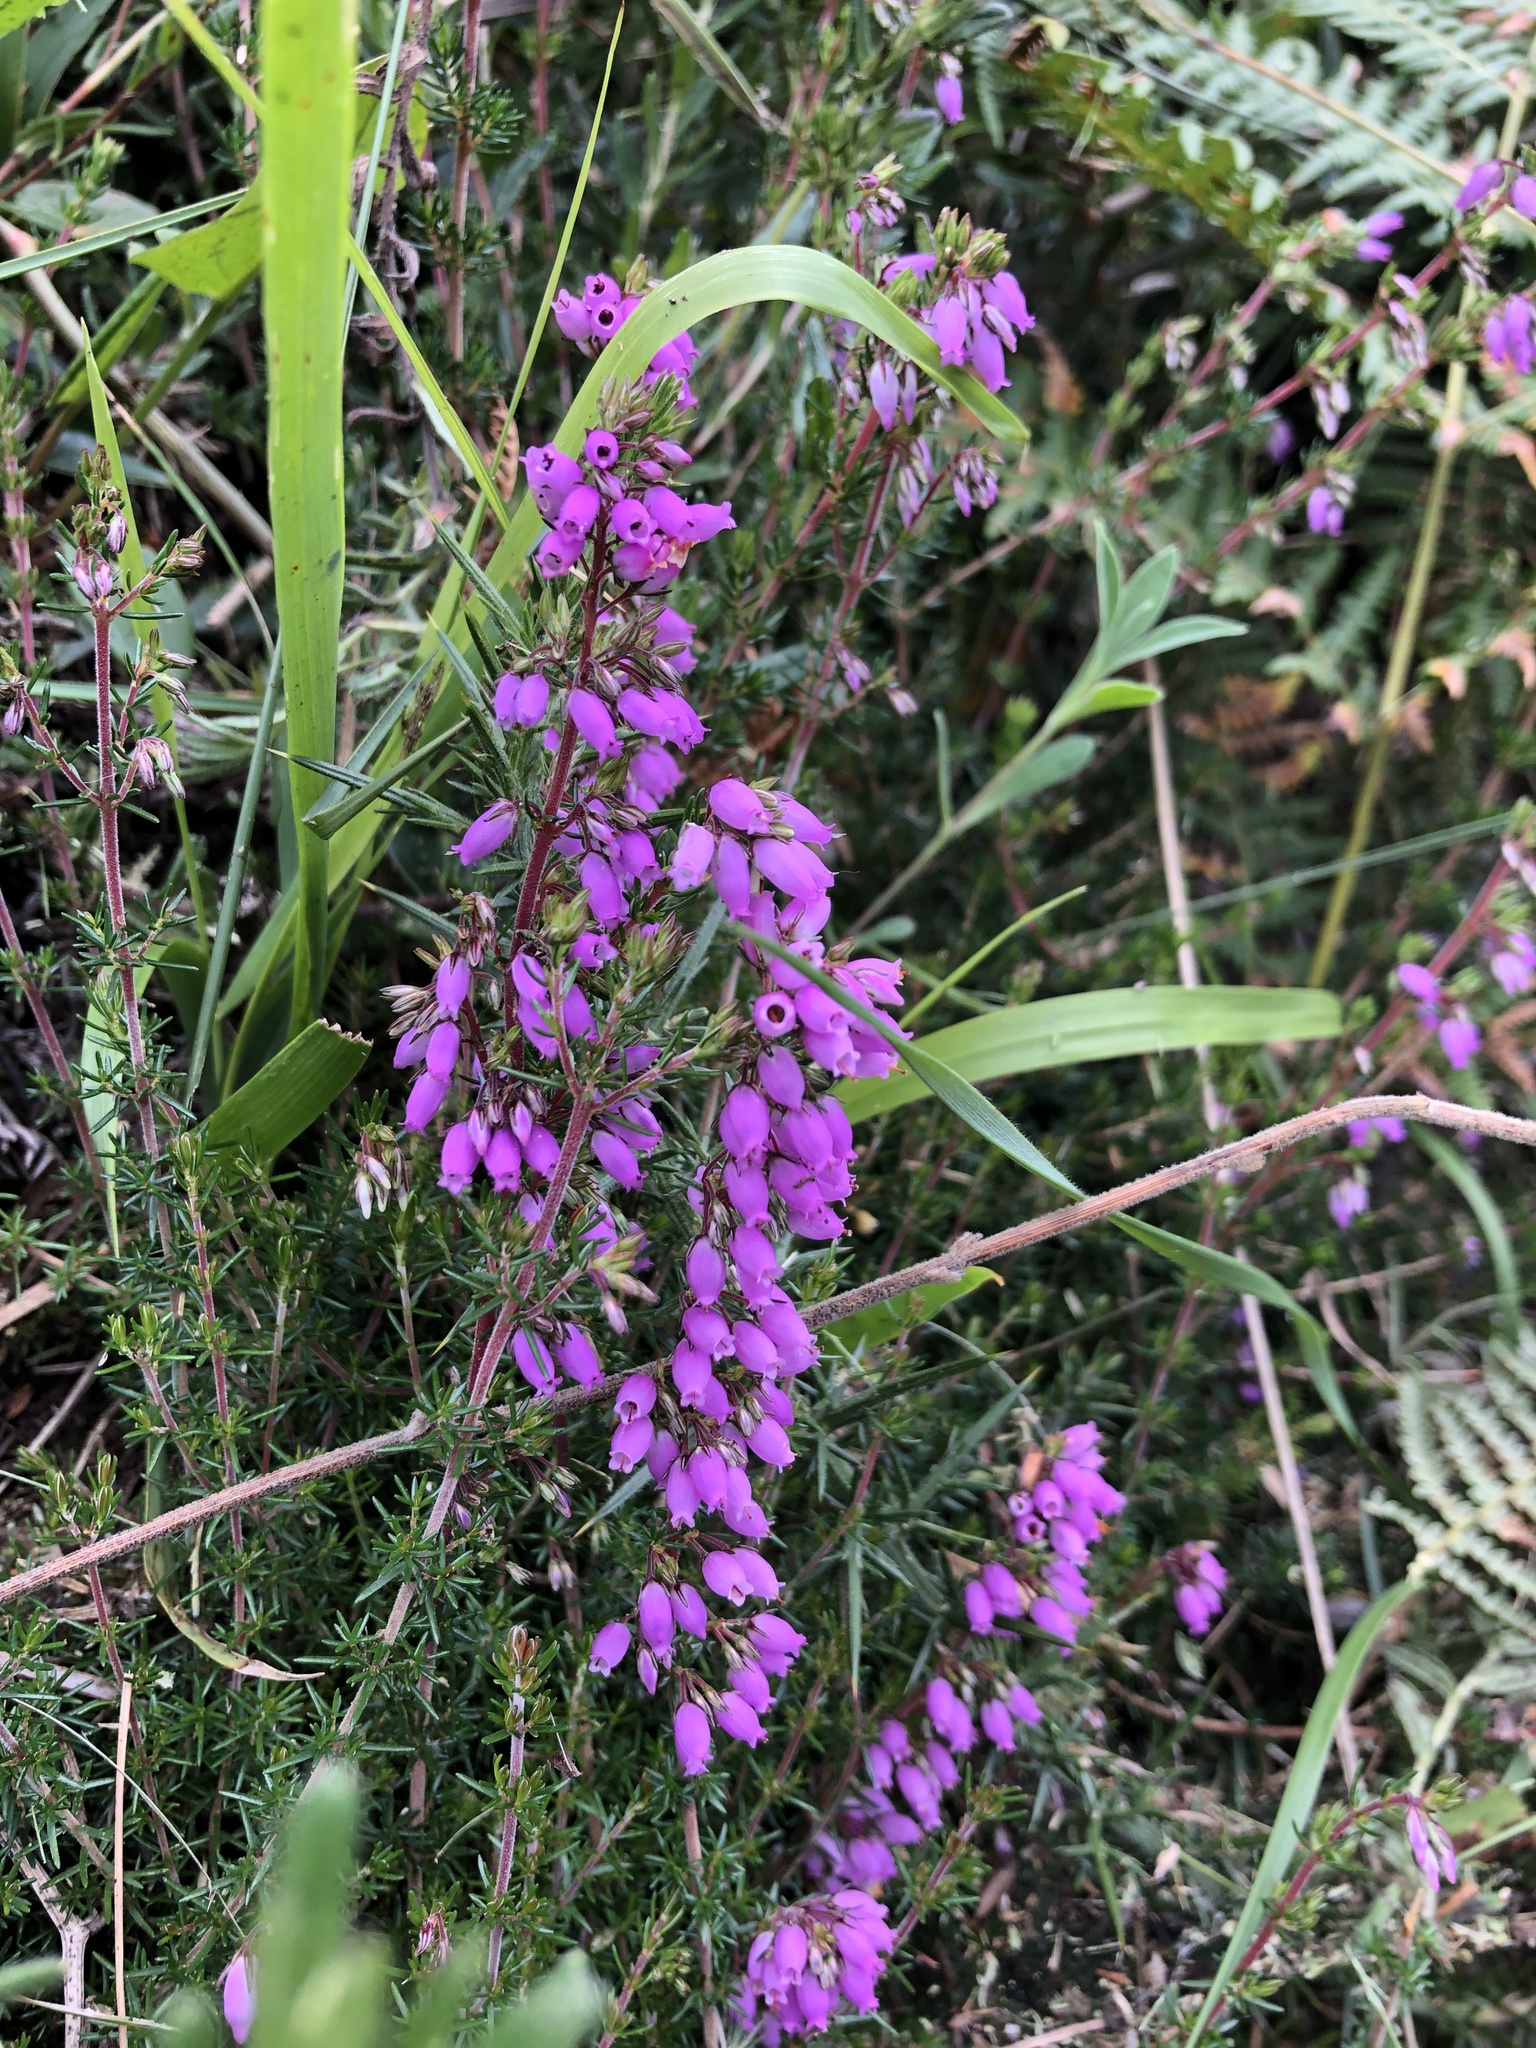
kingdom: Plantae
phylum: Tracheophyta
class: Magnoliopsida
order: Ericales
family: Ericaceae
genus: Erica
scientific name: Erica cinerea
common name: Bell heather
